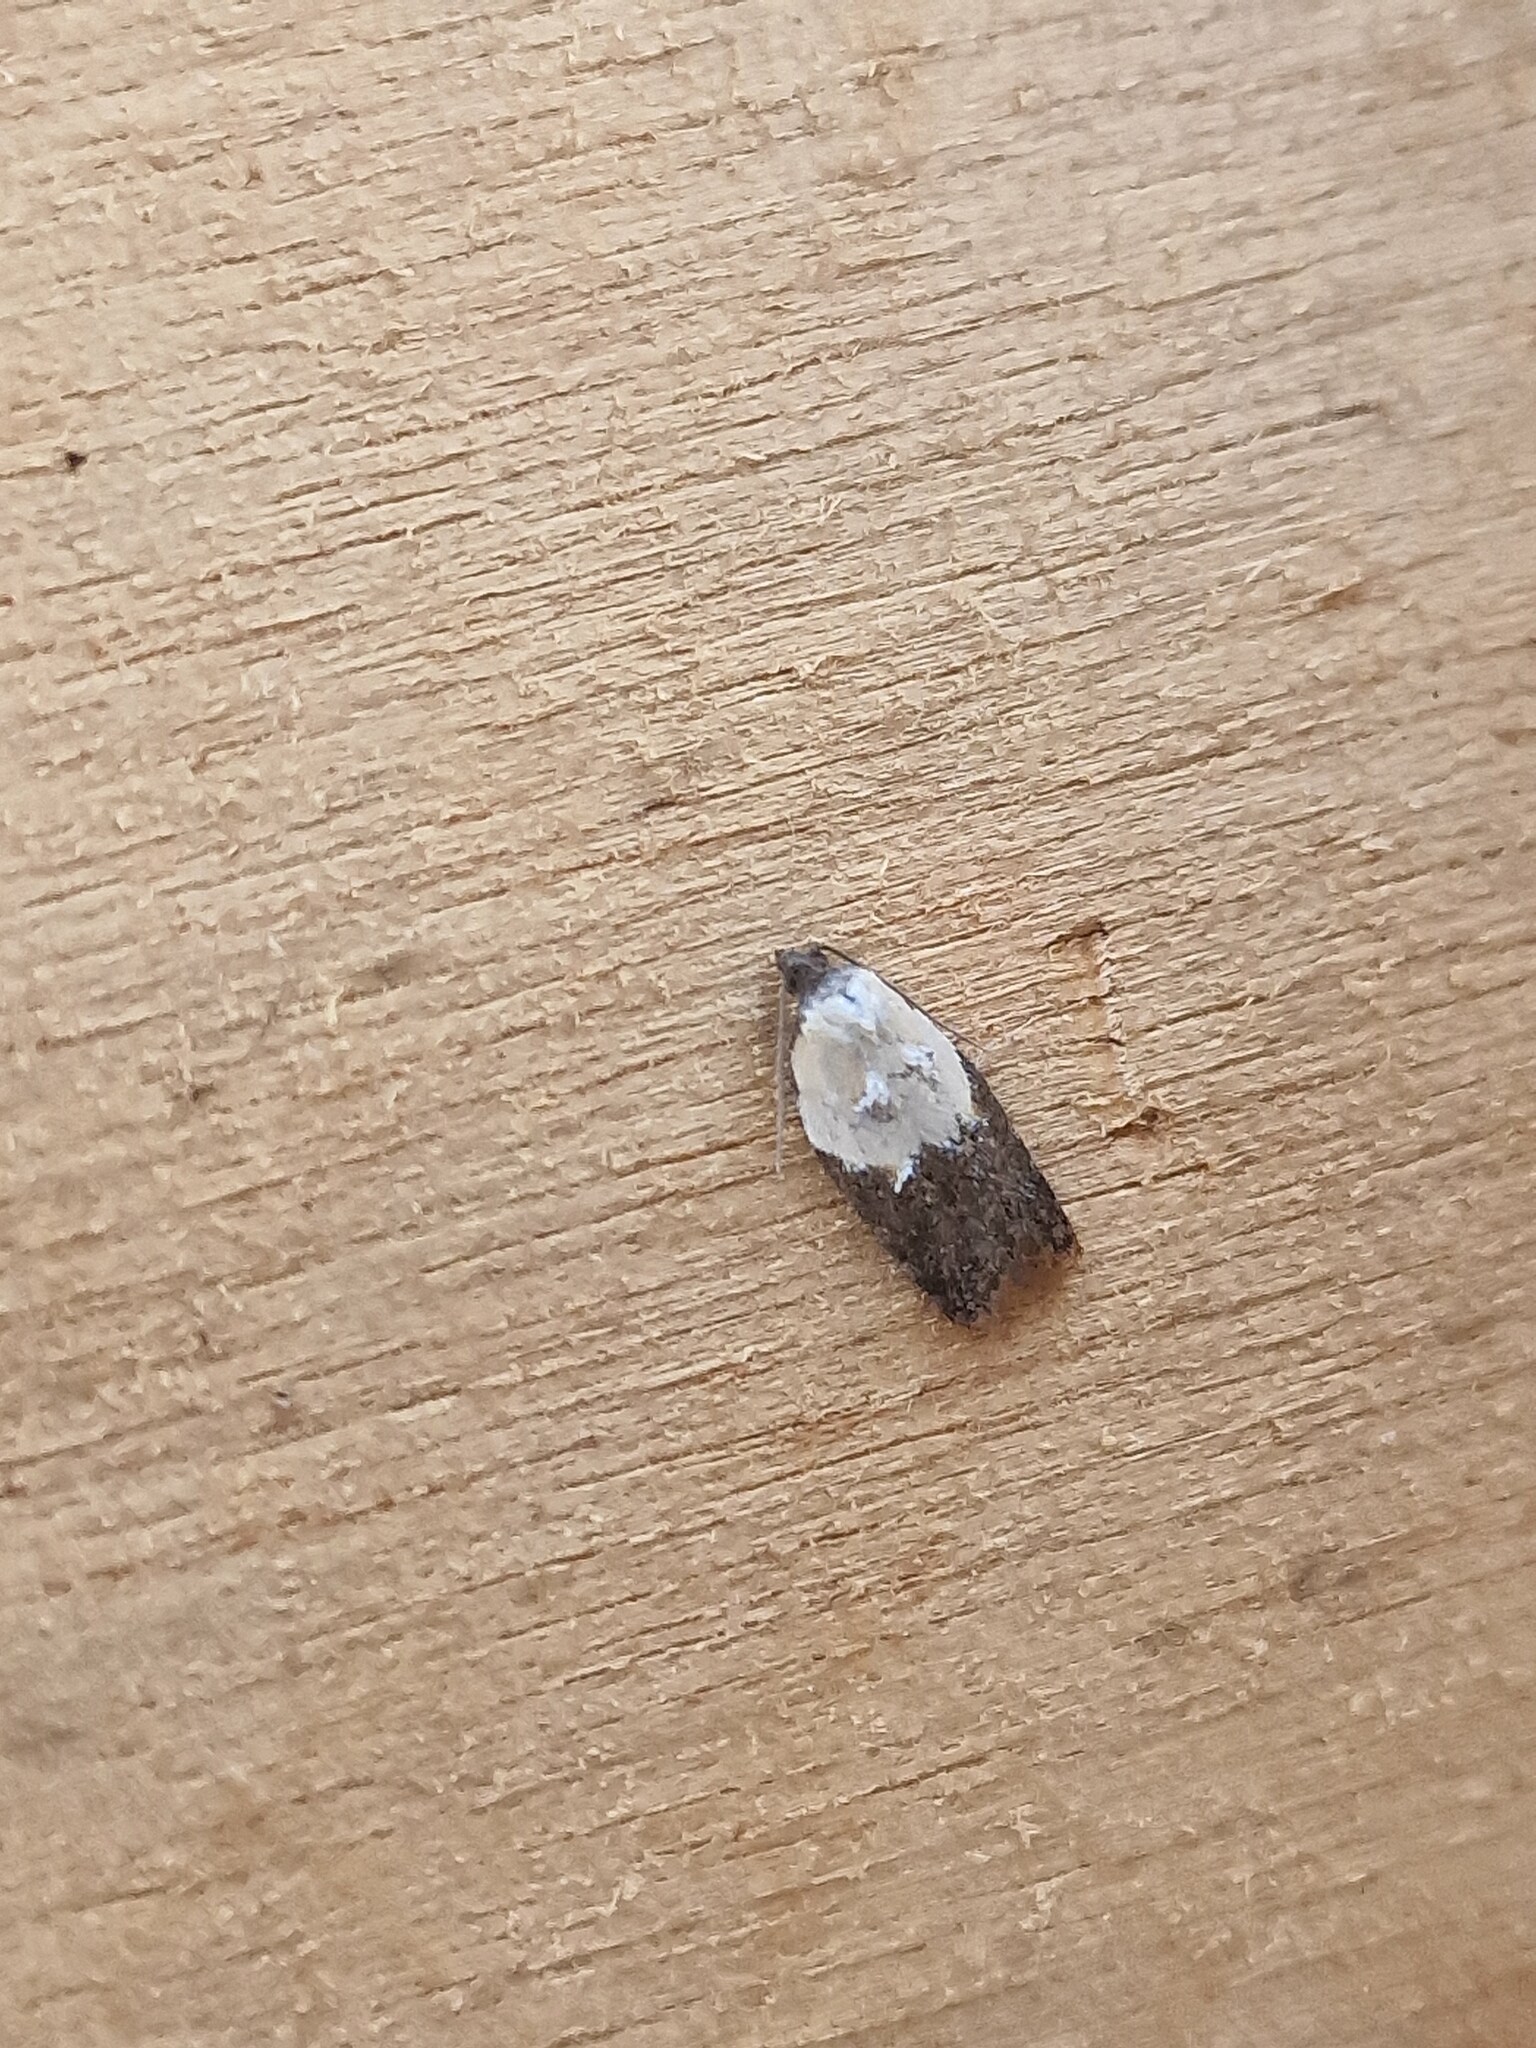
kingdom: Animalia
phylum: Arthropoda
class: Insecta
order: Lepidoptera
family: Tortricidae
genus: Acleris
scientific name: Acleris variegana
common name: Garden rose tortrix
